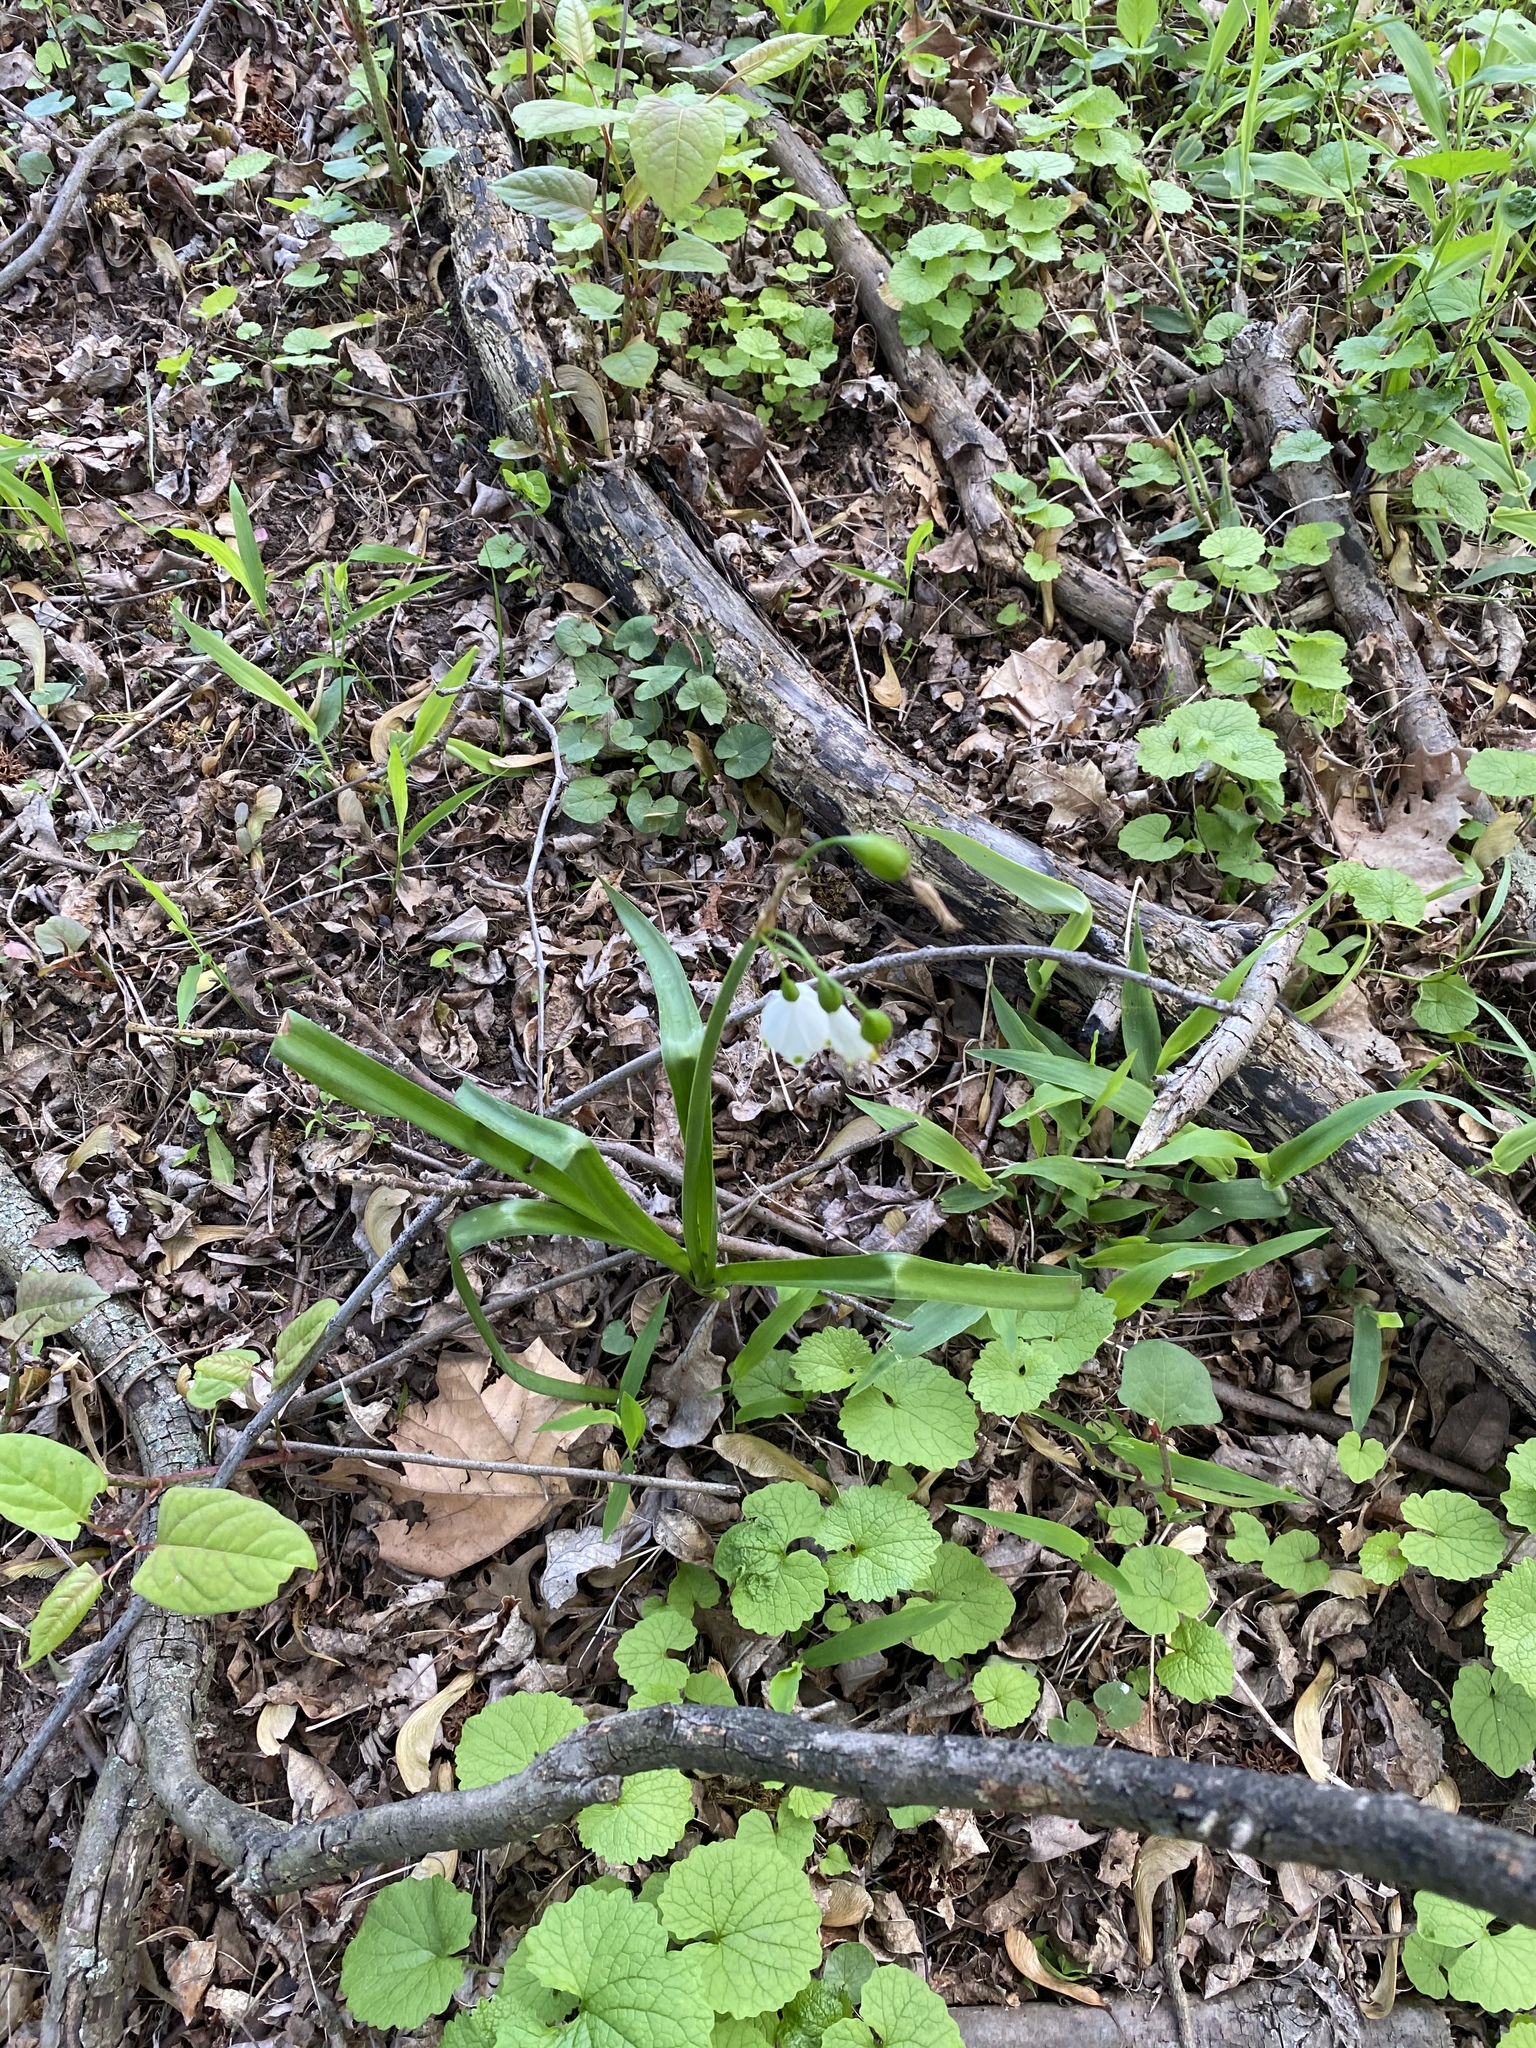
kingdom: Plantae
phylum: Tracheophyta
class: Liliopsida
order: Asparagales
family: Amaryllidaceae
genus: Leucojum
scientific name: Leucojum aestivum
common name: Summer snowflake
